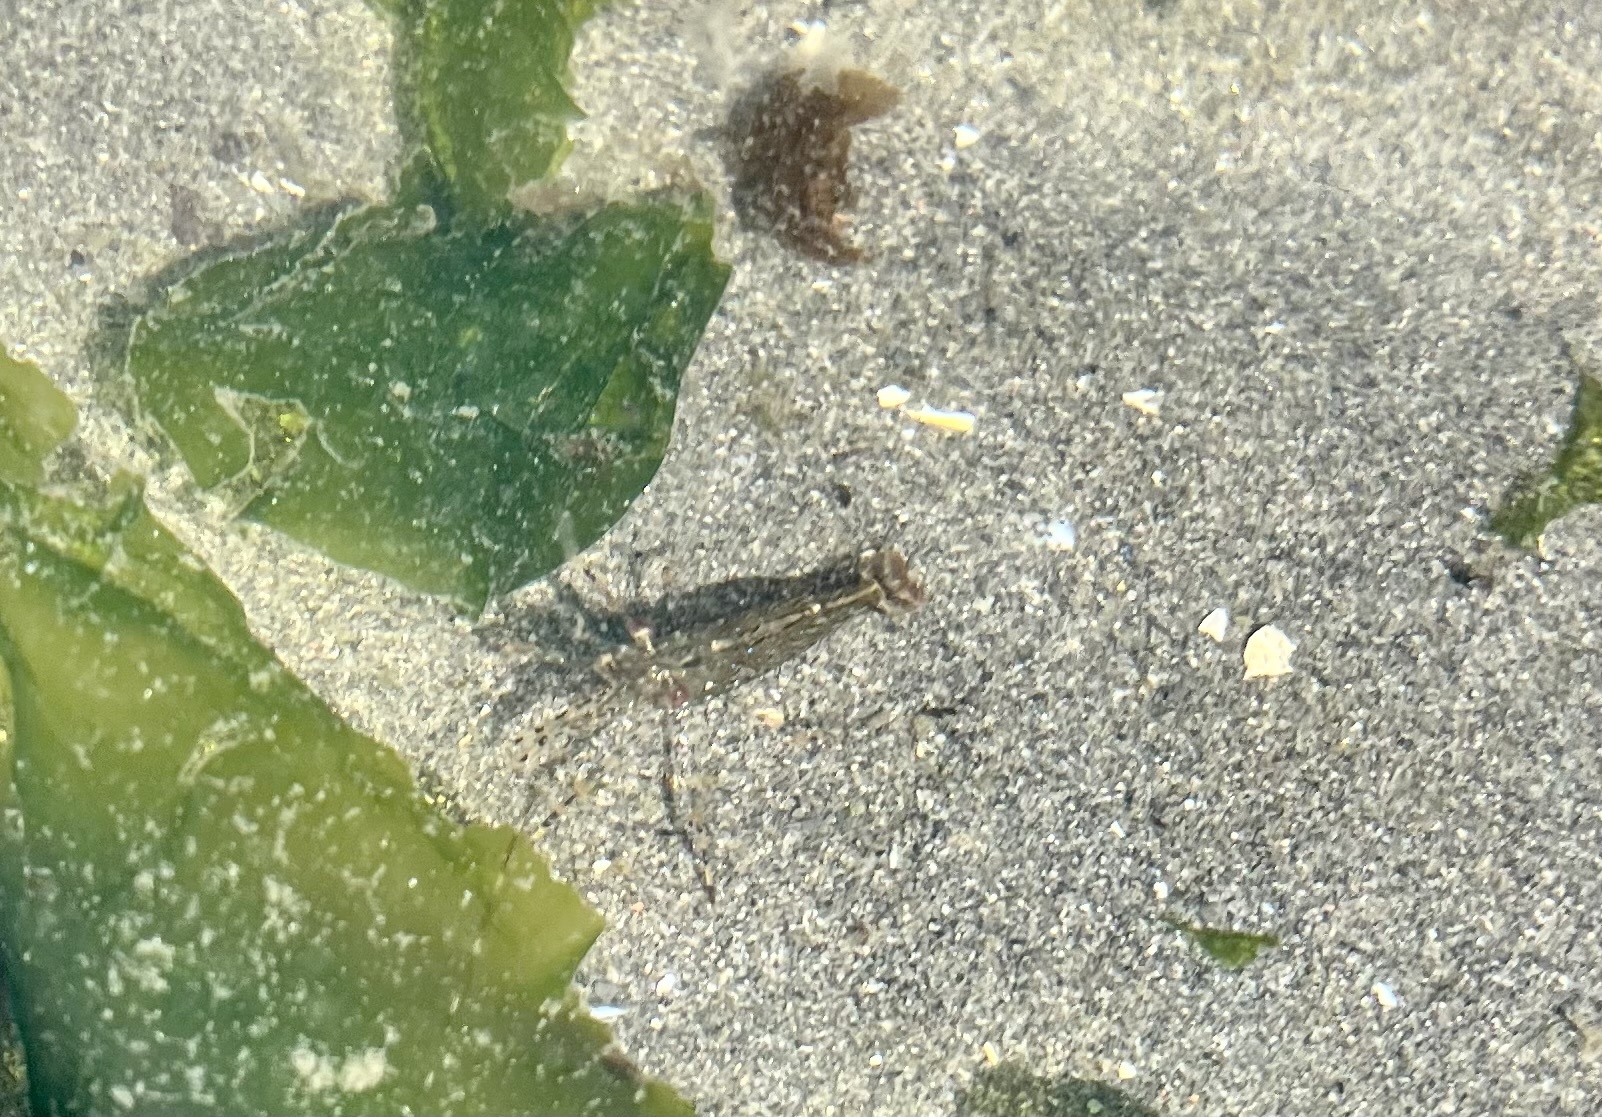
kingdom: Animalia
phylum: Arthropoda
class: Malacostraca
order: Decapoda
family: Pandalidae
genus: Pandalus
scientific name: Pandalus danae
